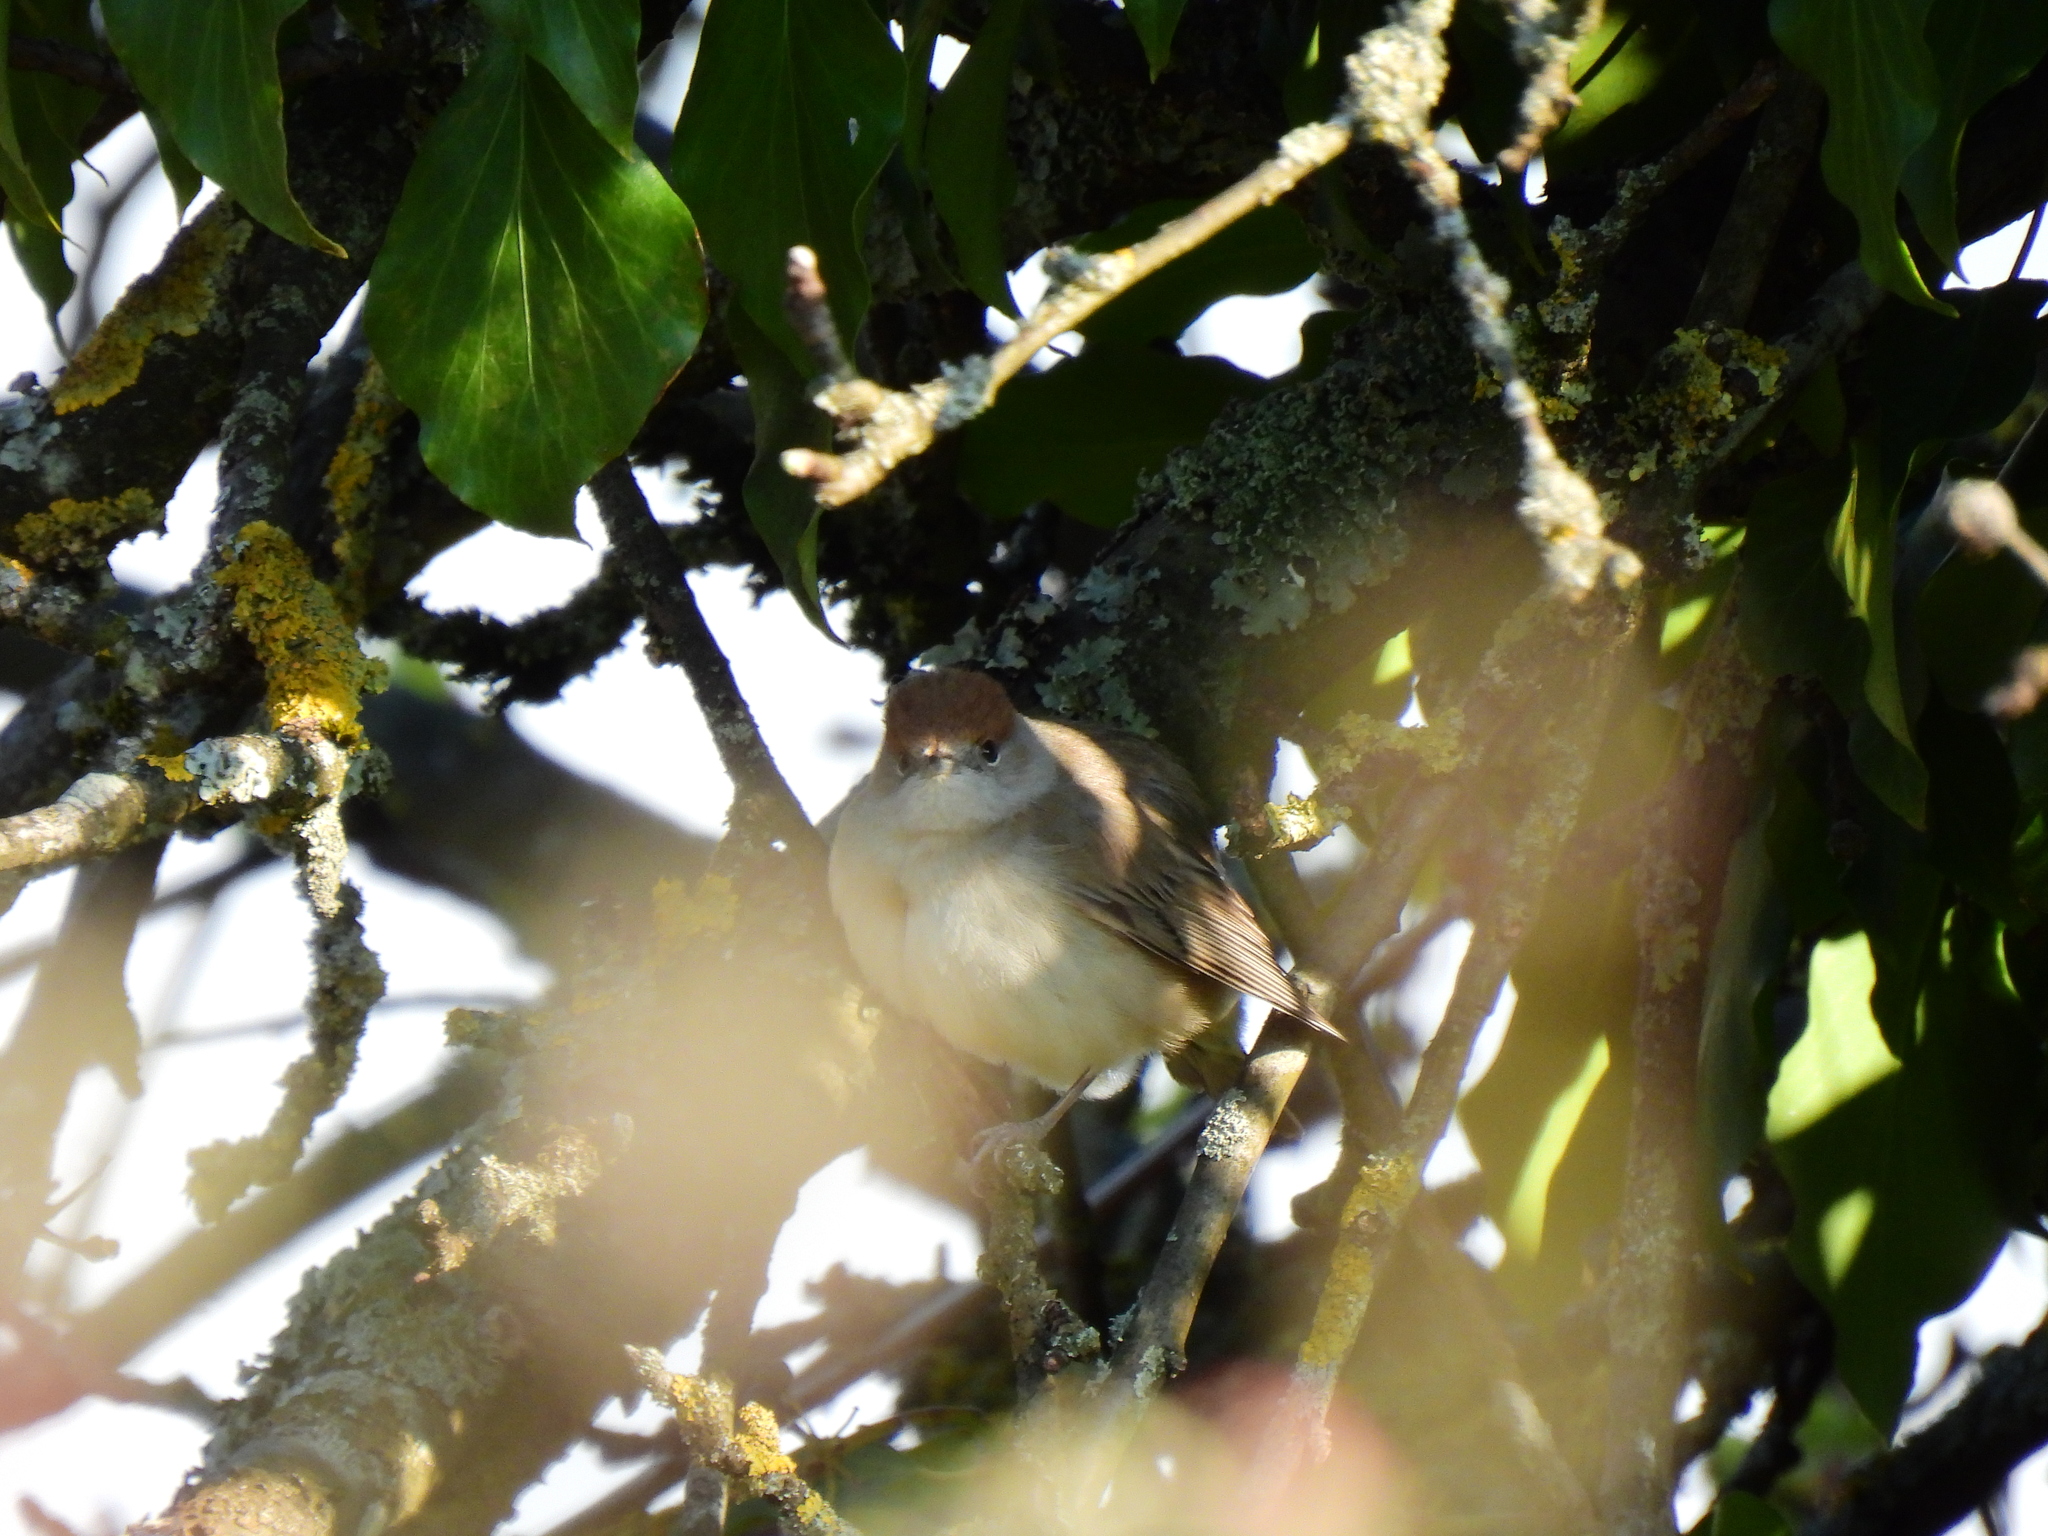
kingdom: Animalia
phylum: Chordata
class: Aves
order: Passeriformes
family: Sylviidae
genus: Sylvia
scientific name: Sylvia atricapilla
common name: Eurasian blackcap
